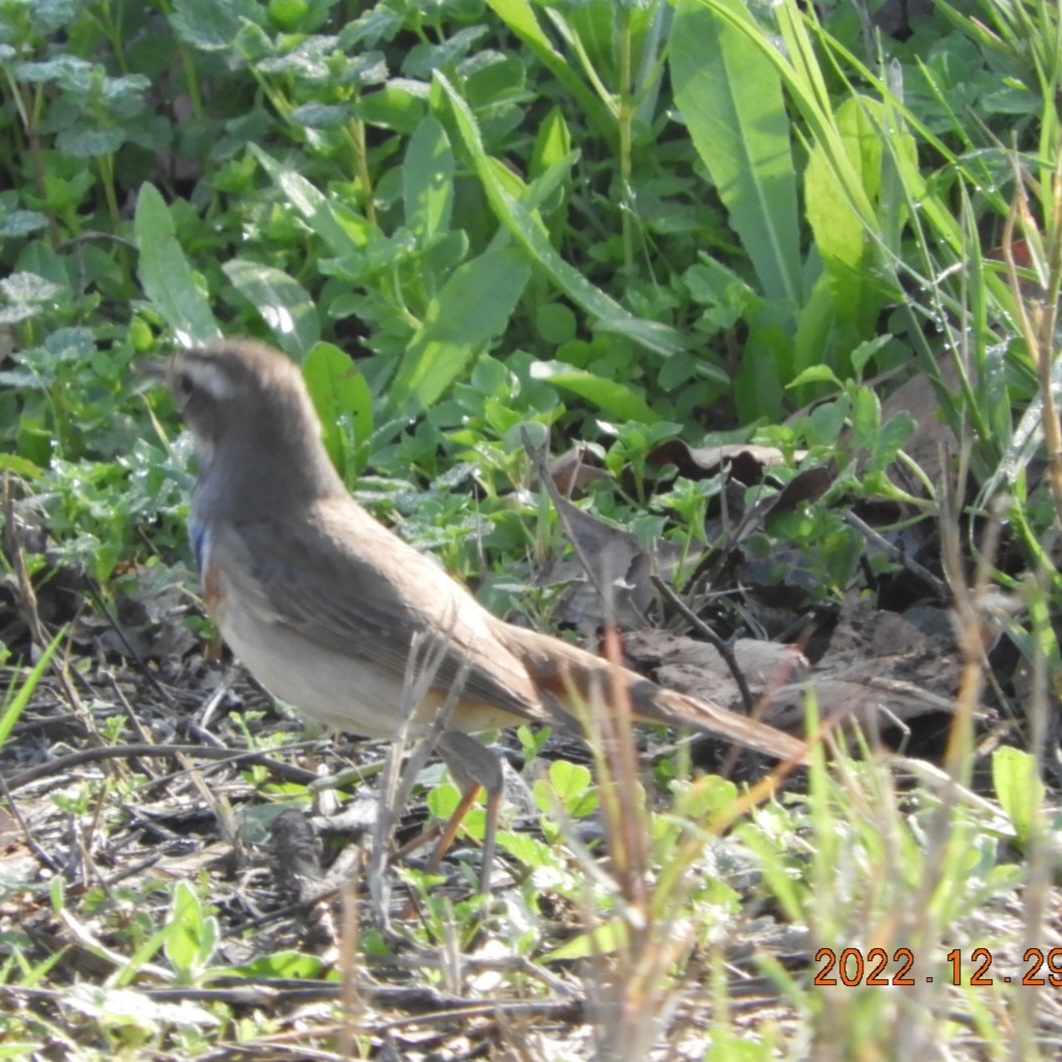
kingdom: Animalia
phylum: Chordata
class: Aves
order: Passeriformes
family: Muscicapidae
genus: Luscinia
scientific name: Luscinia svecica
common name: Bluethroat
